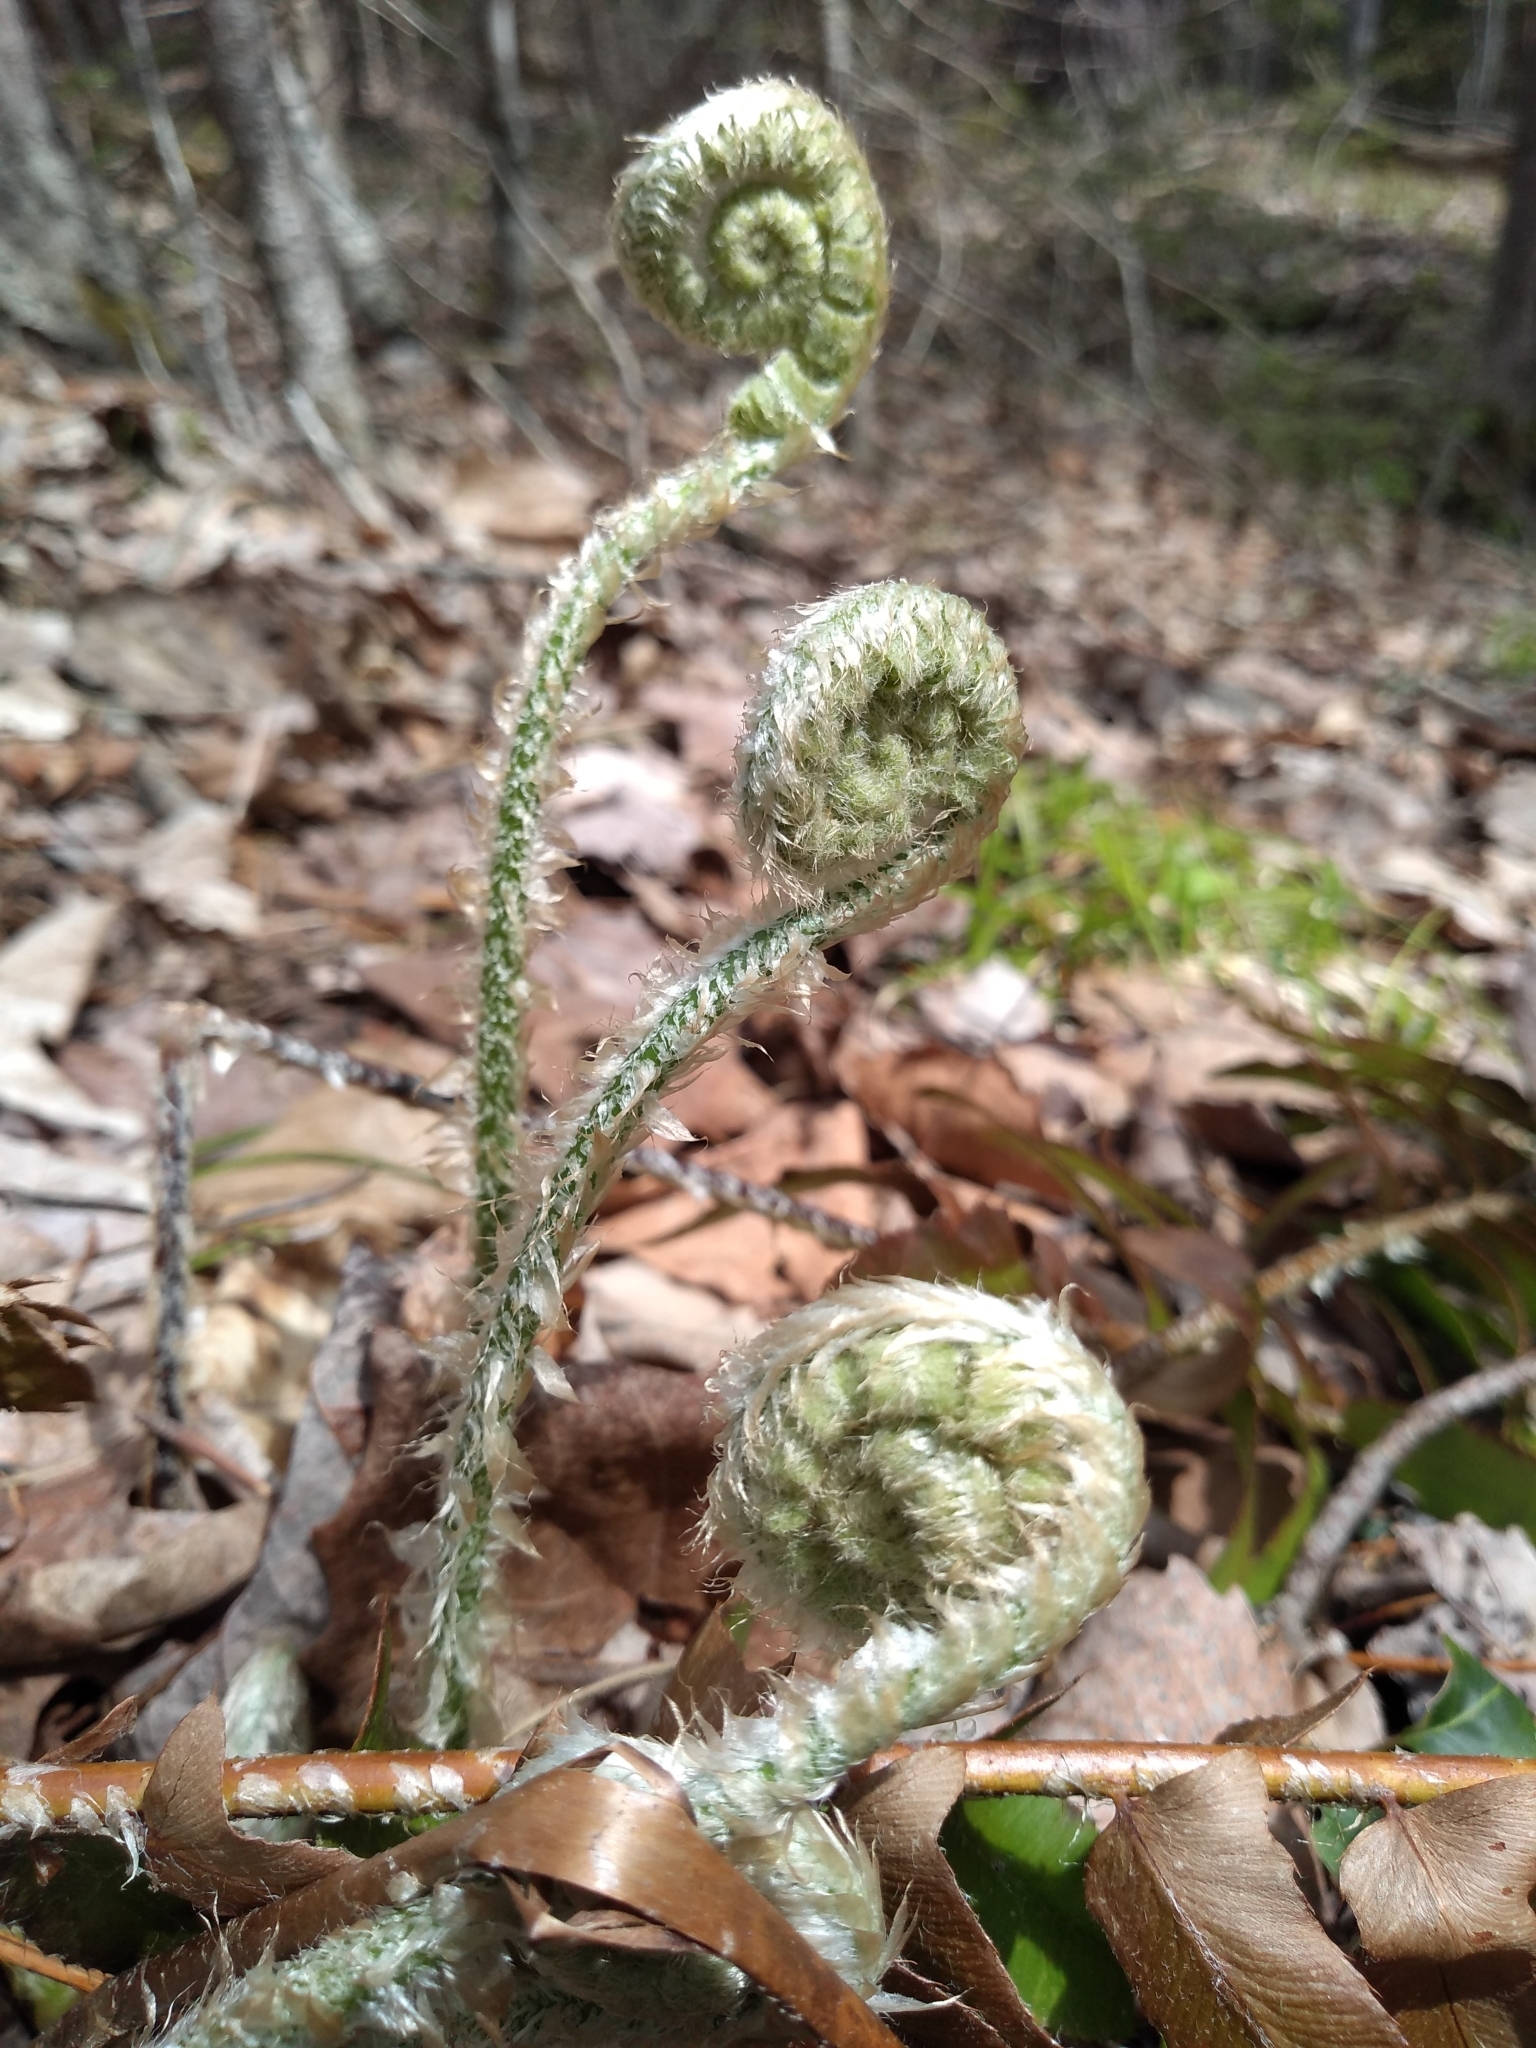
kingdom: Plantae
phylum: Tracheophyta
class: Polypodiopsida
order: Polypodiales
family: Dryopteridaceae
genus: Polystichum
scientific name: Polystichum acrostichoides
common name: Christmas fern
